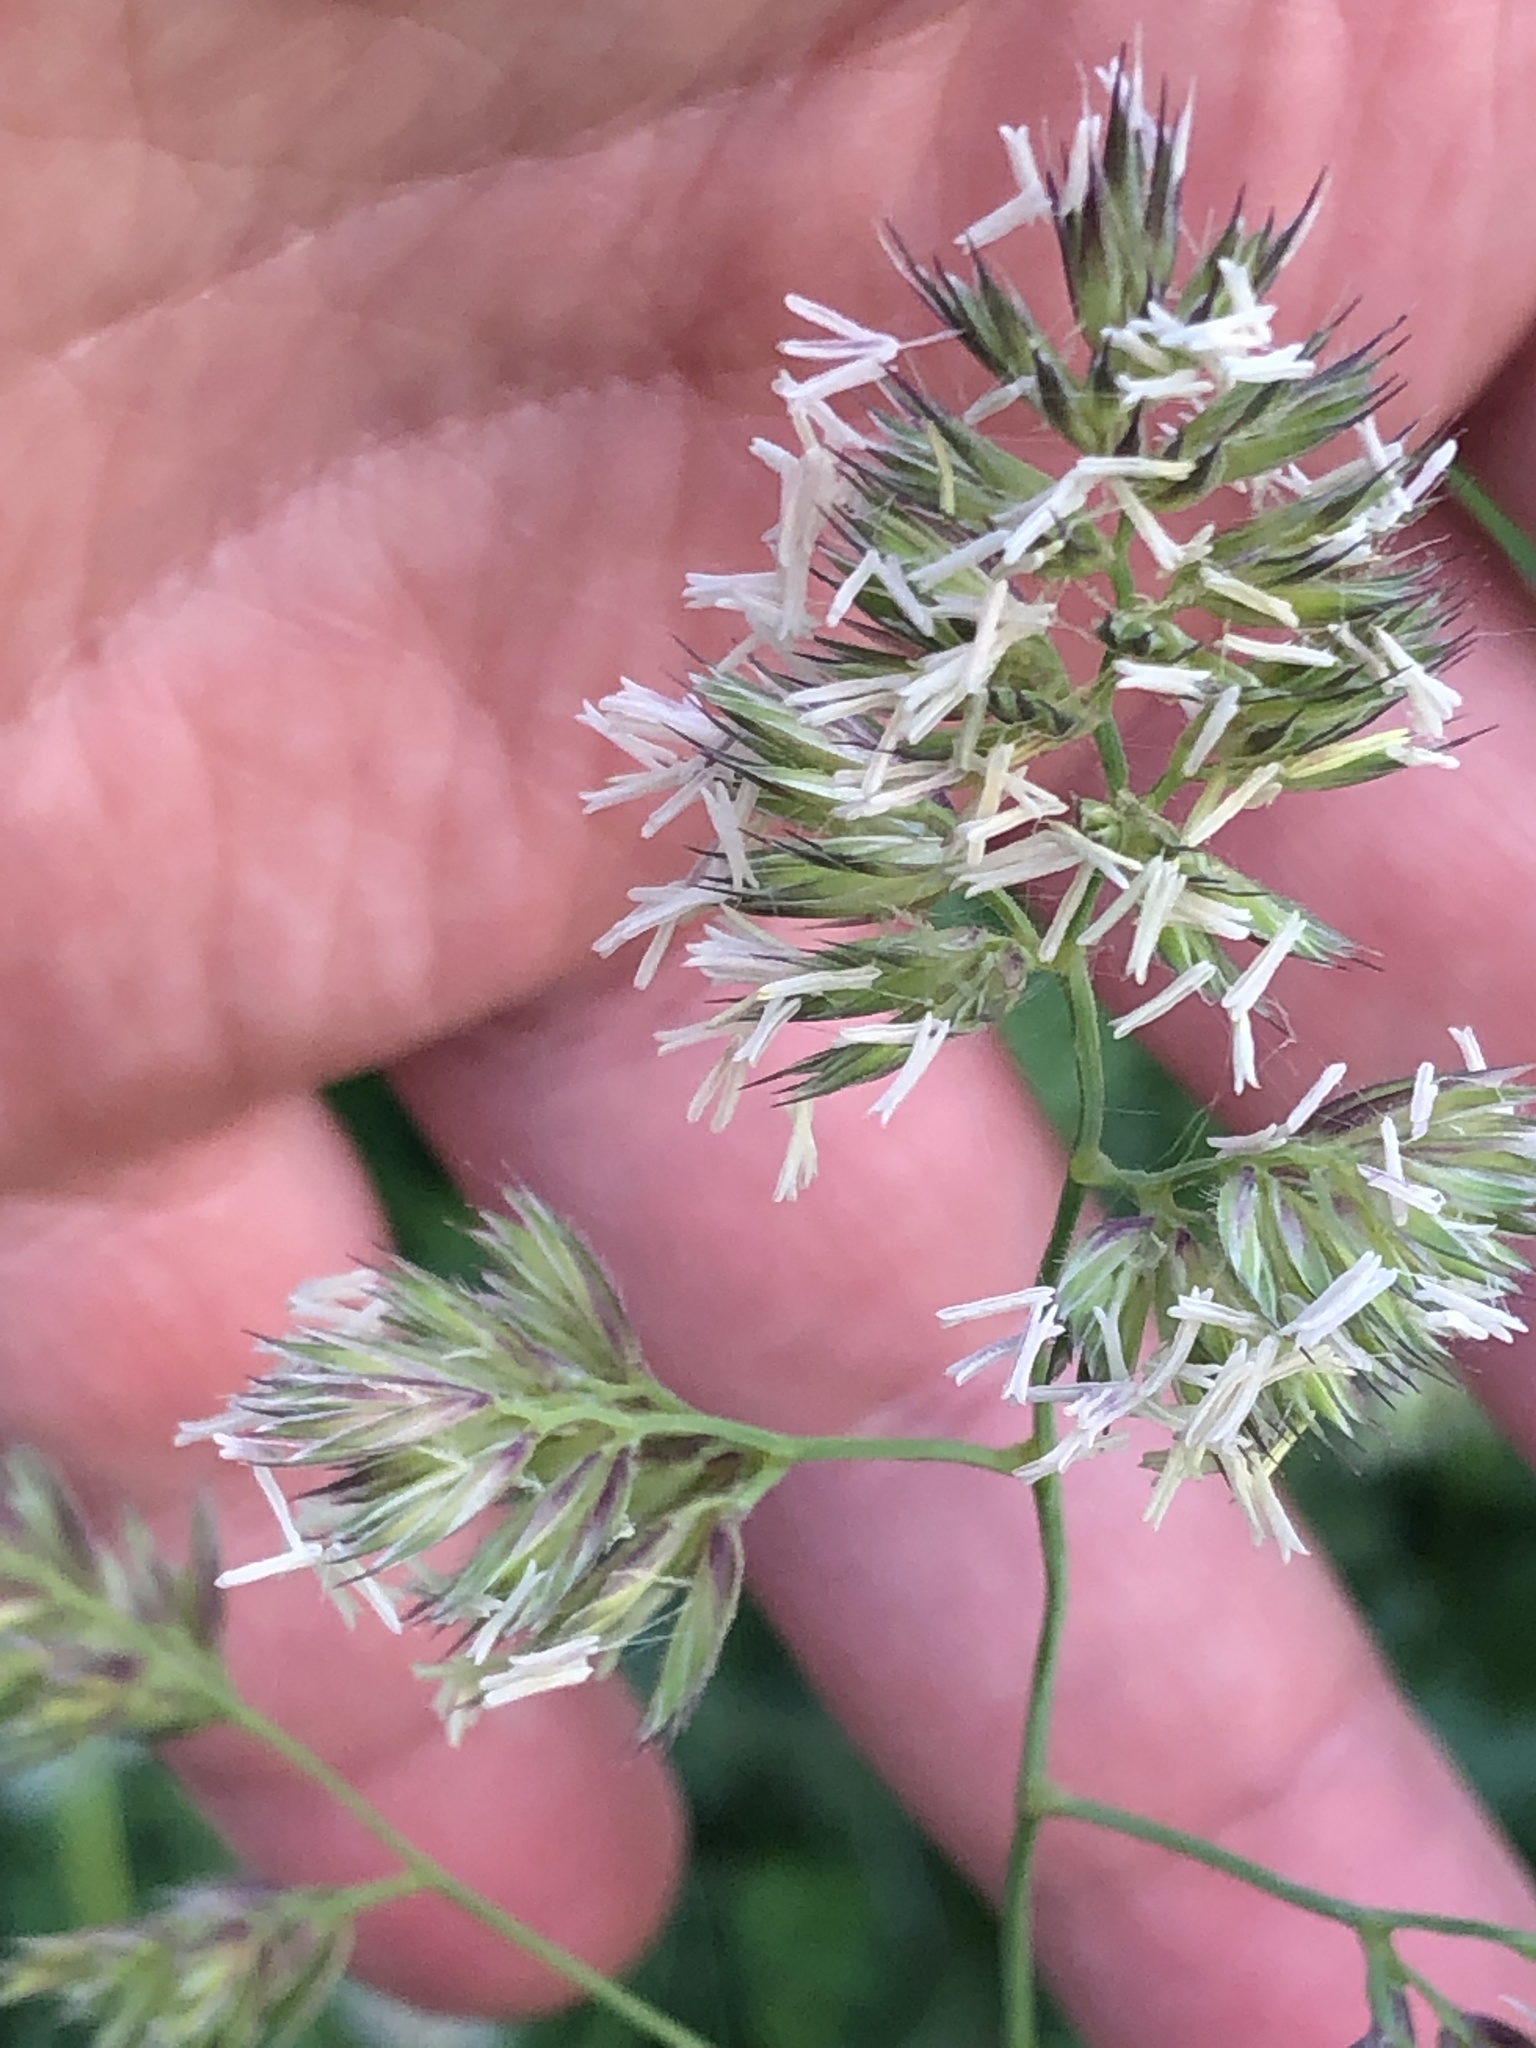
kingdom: Plantae
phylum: Tracheophyta
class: Liliopsida
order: Poales
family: Poaceae
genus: Dactylis
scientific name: Dactylis glomerata
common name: Orchardgrass
